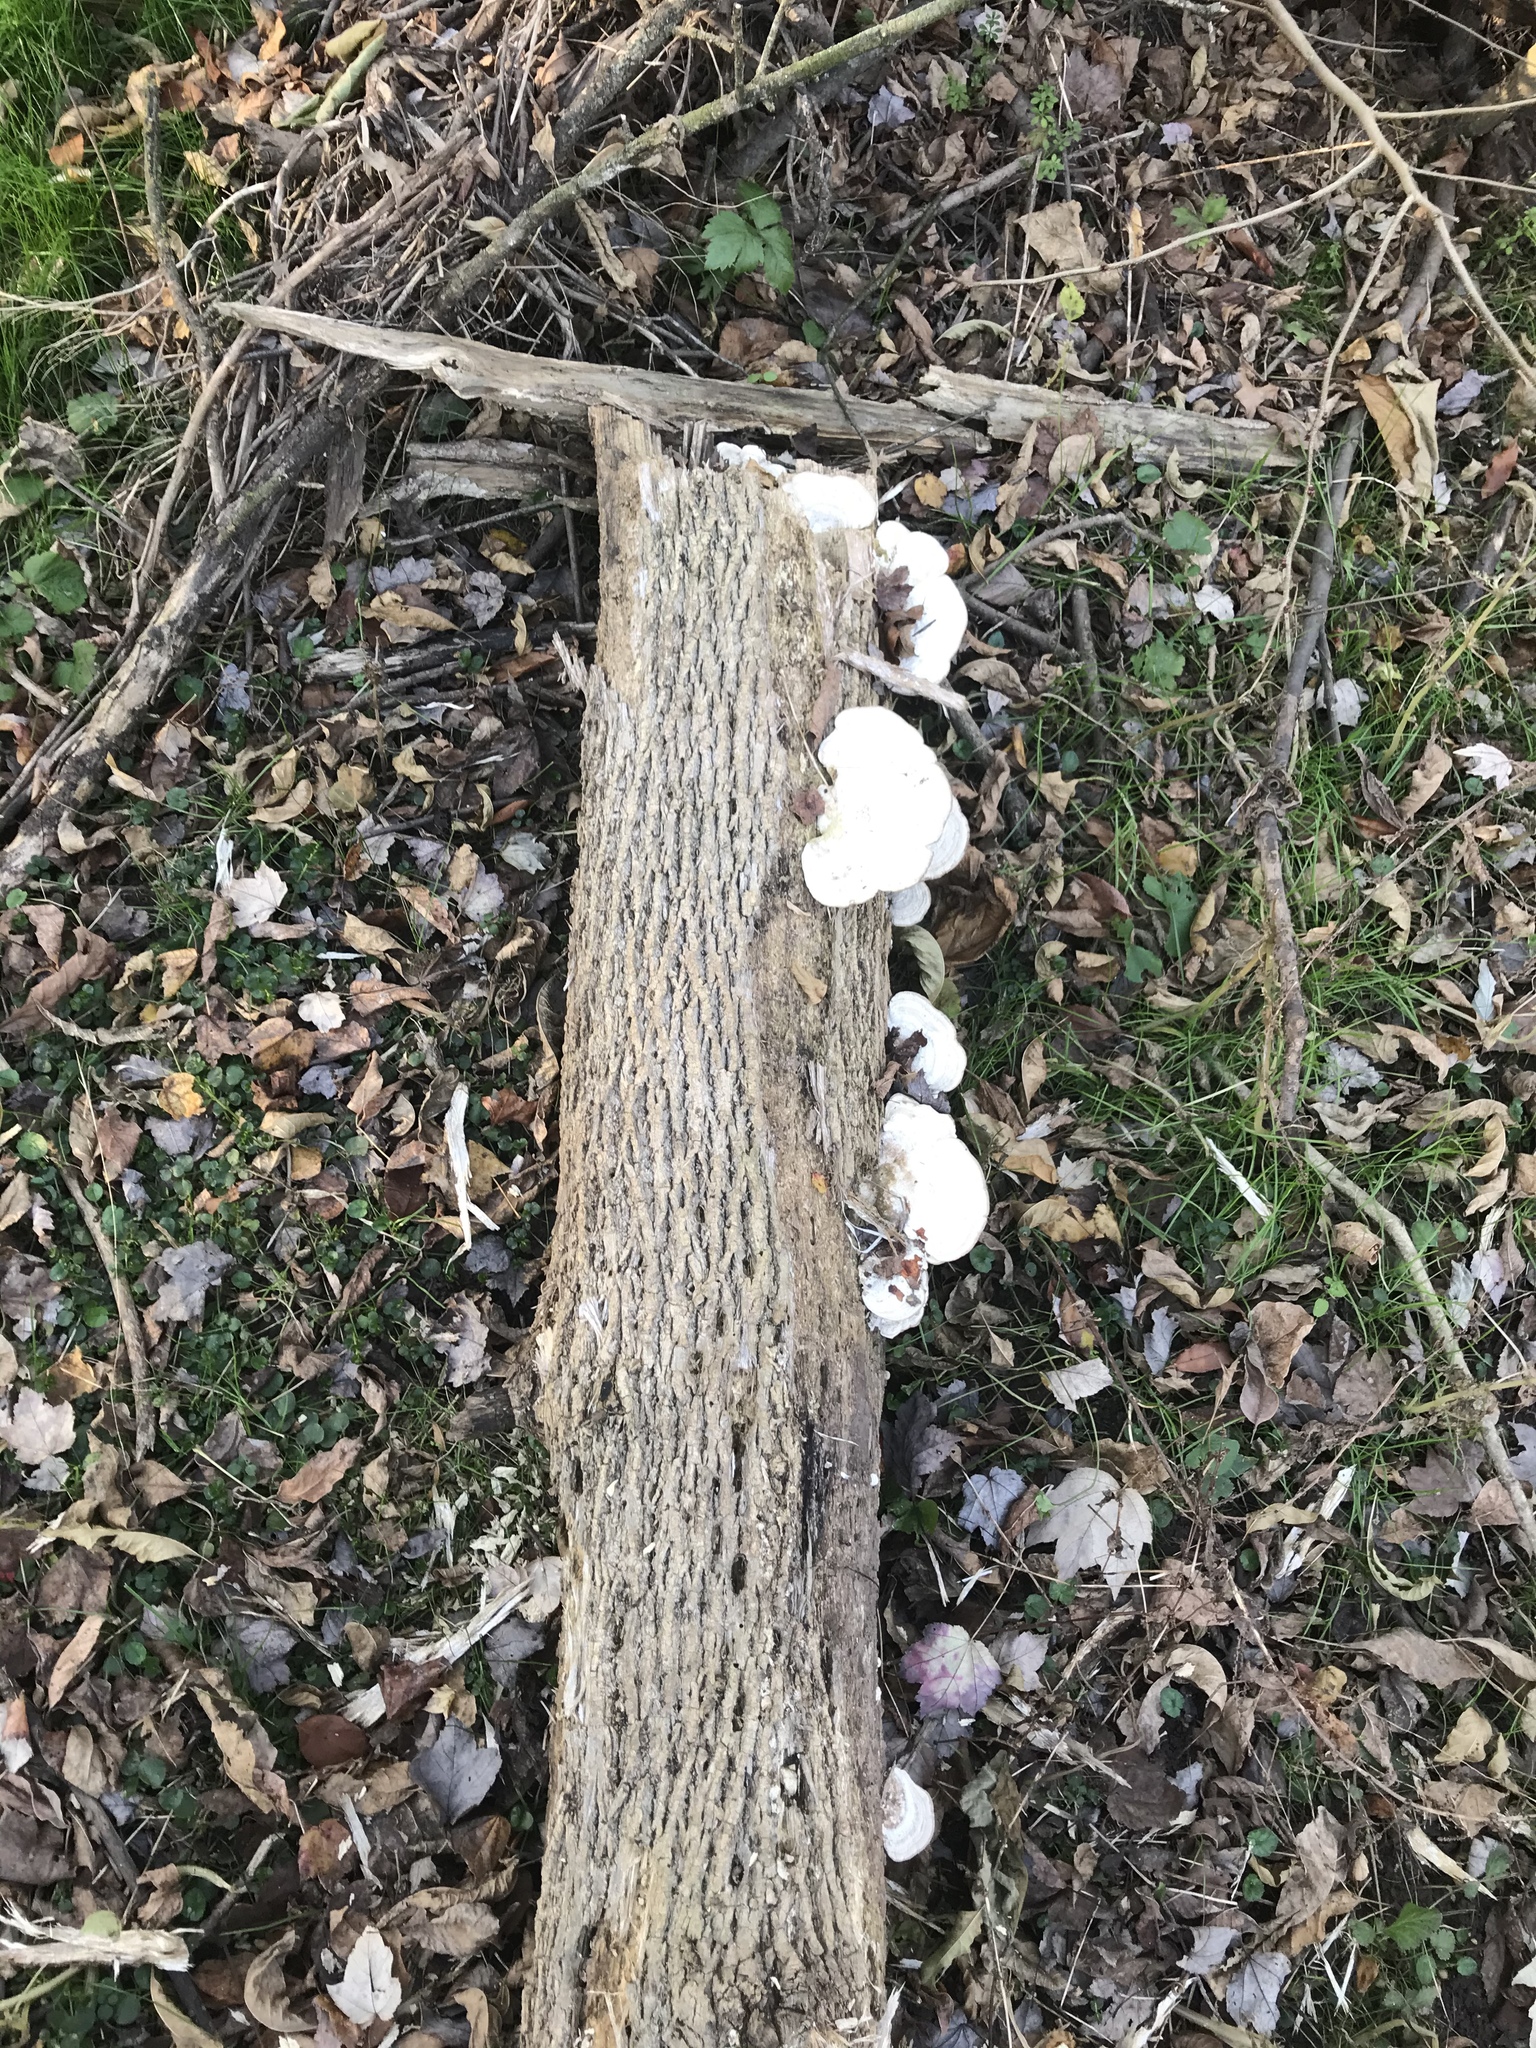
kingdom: Fungi
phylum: Basidiomycota
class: Agaricomycetes
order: Polyporales
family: Polyporaceae
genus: Trametes
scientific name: Trametes gibbosa
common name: Lumpy bracket
